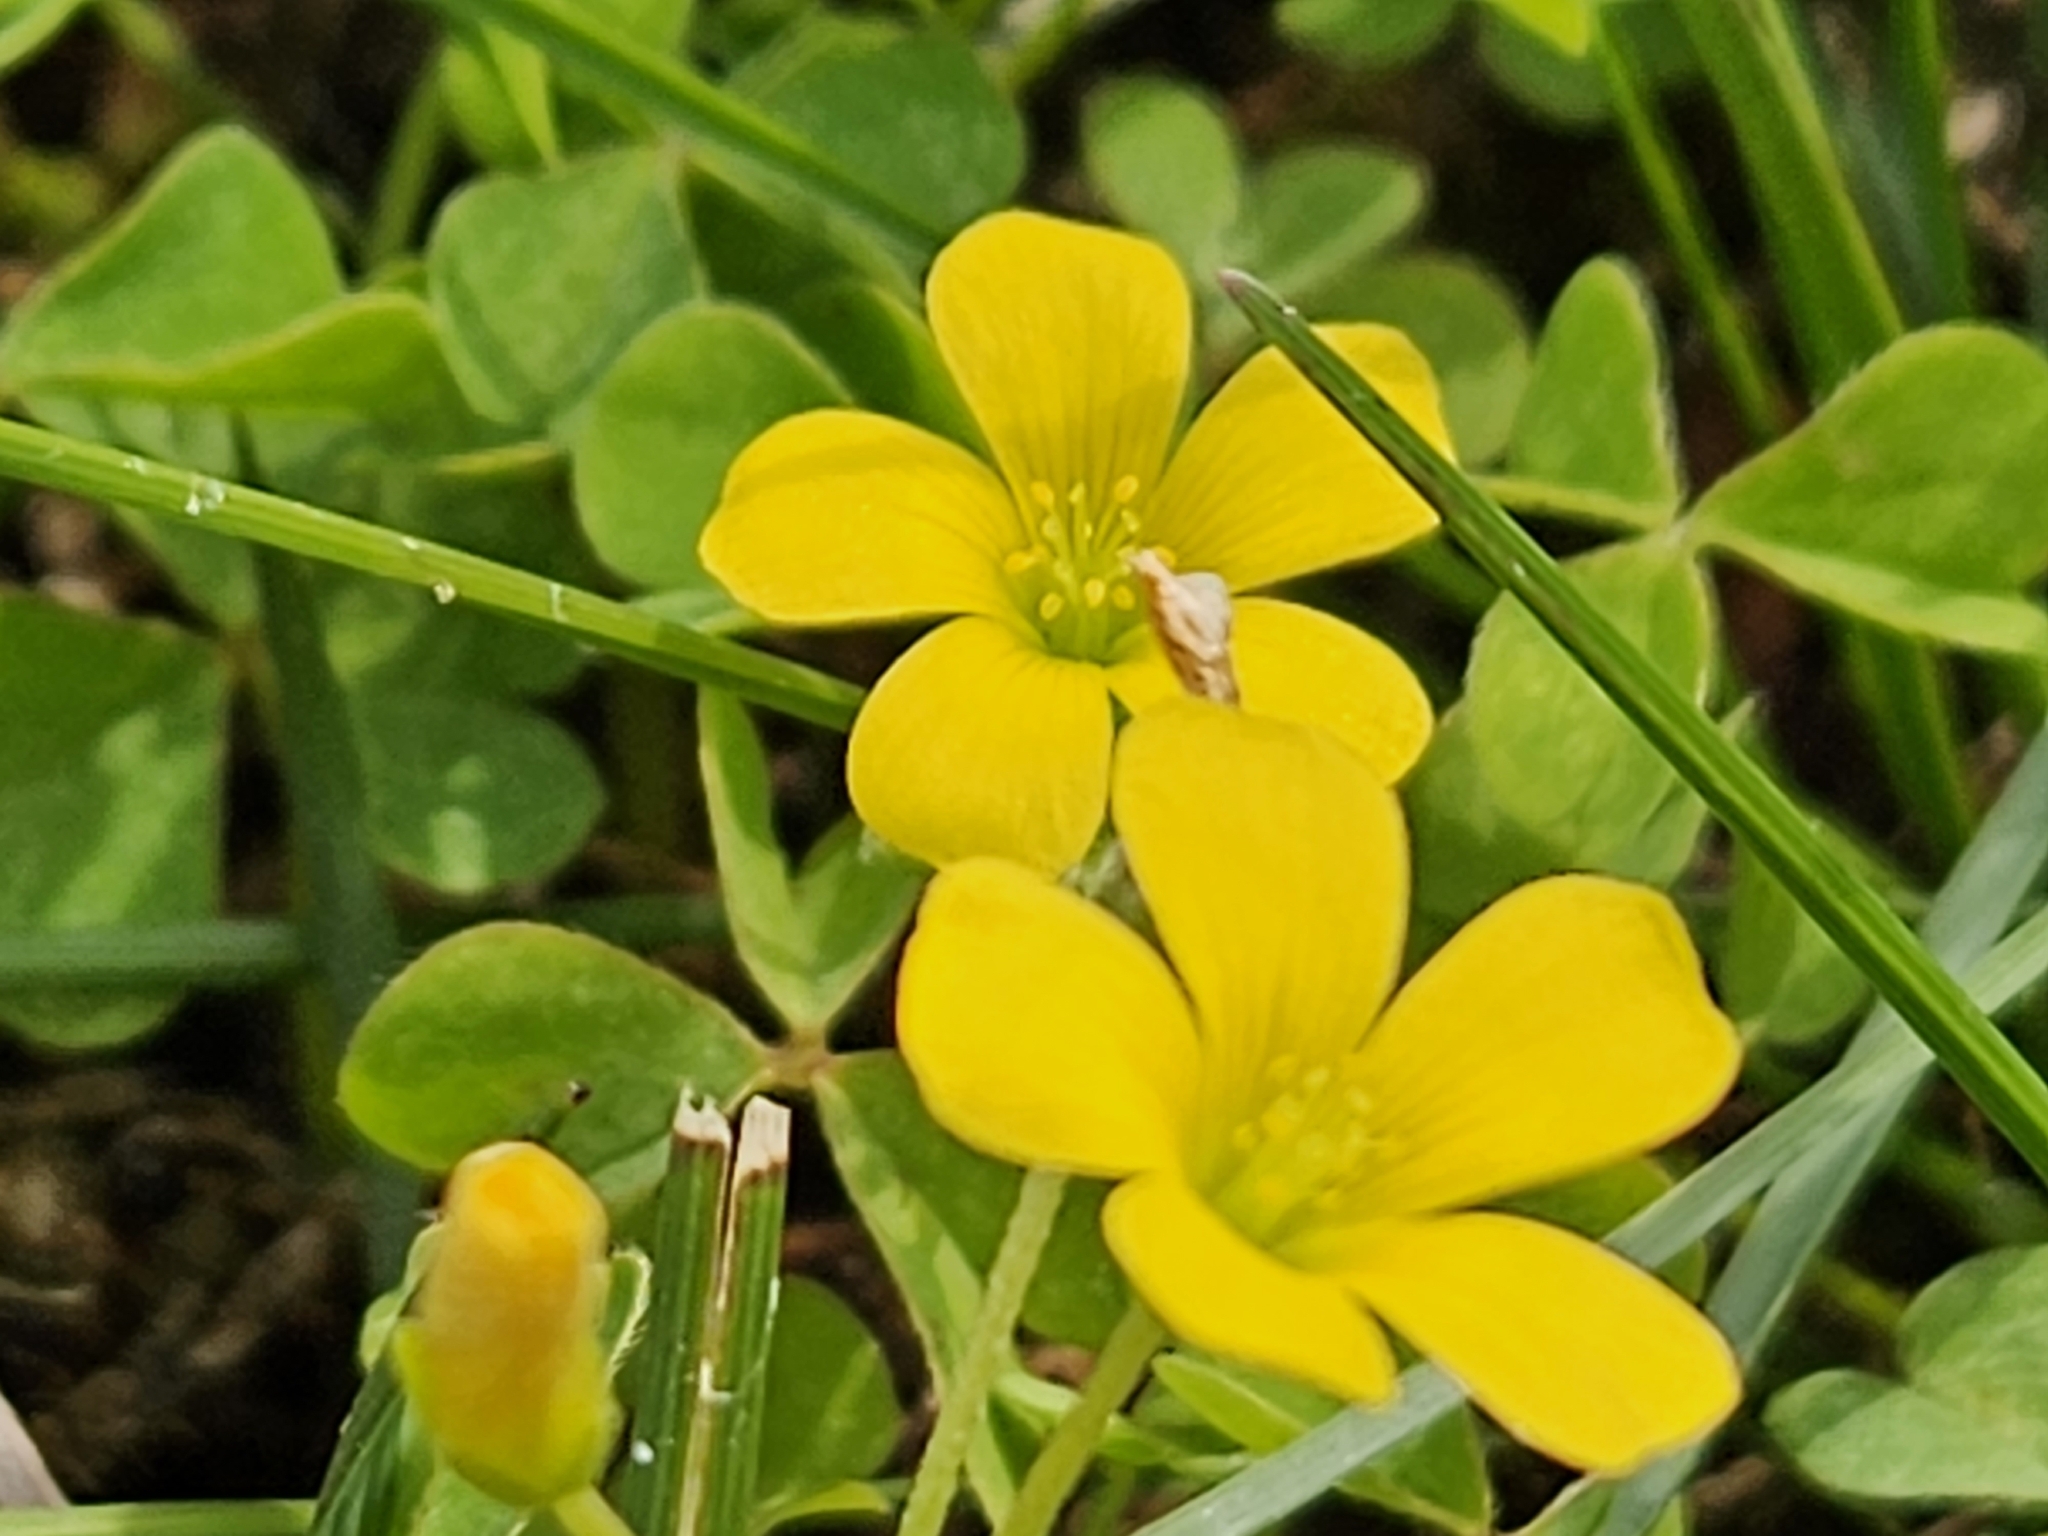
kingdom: Plantae
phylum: Tracheophyta
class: Magnoliopsida
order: Oxalidales
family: Oxalidaceae
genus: Oxalis
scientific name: Oxalis dillenii
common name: Sussex yellow-sorrel
